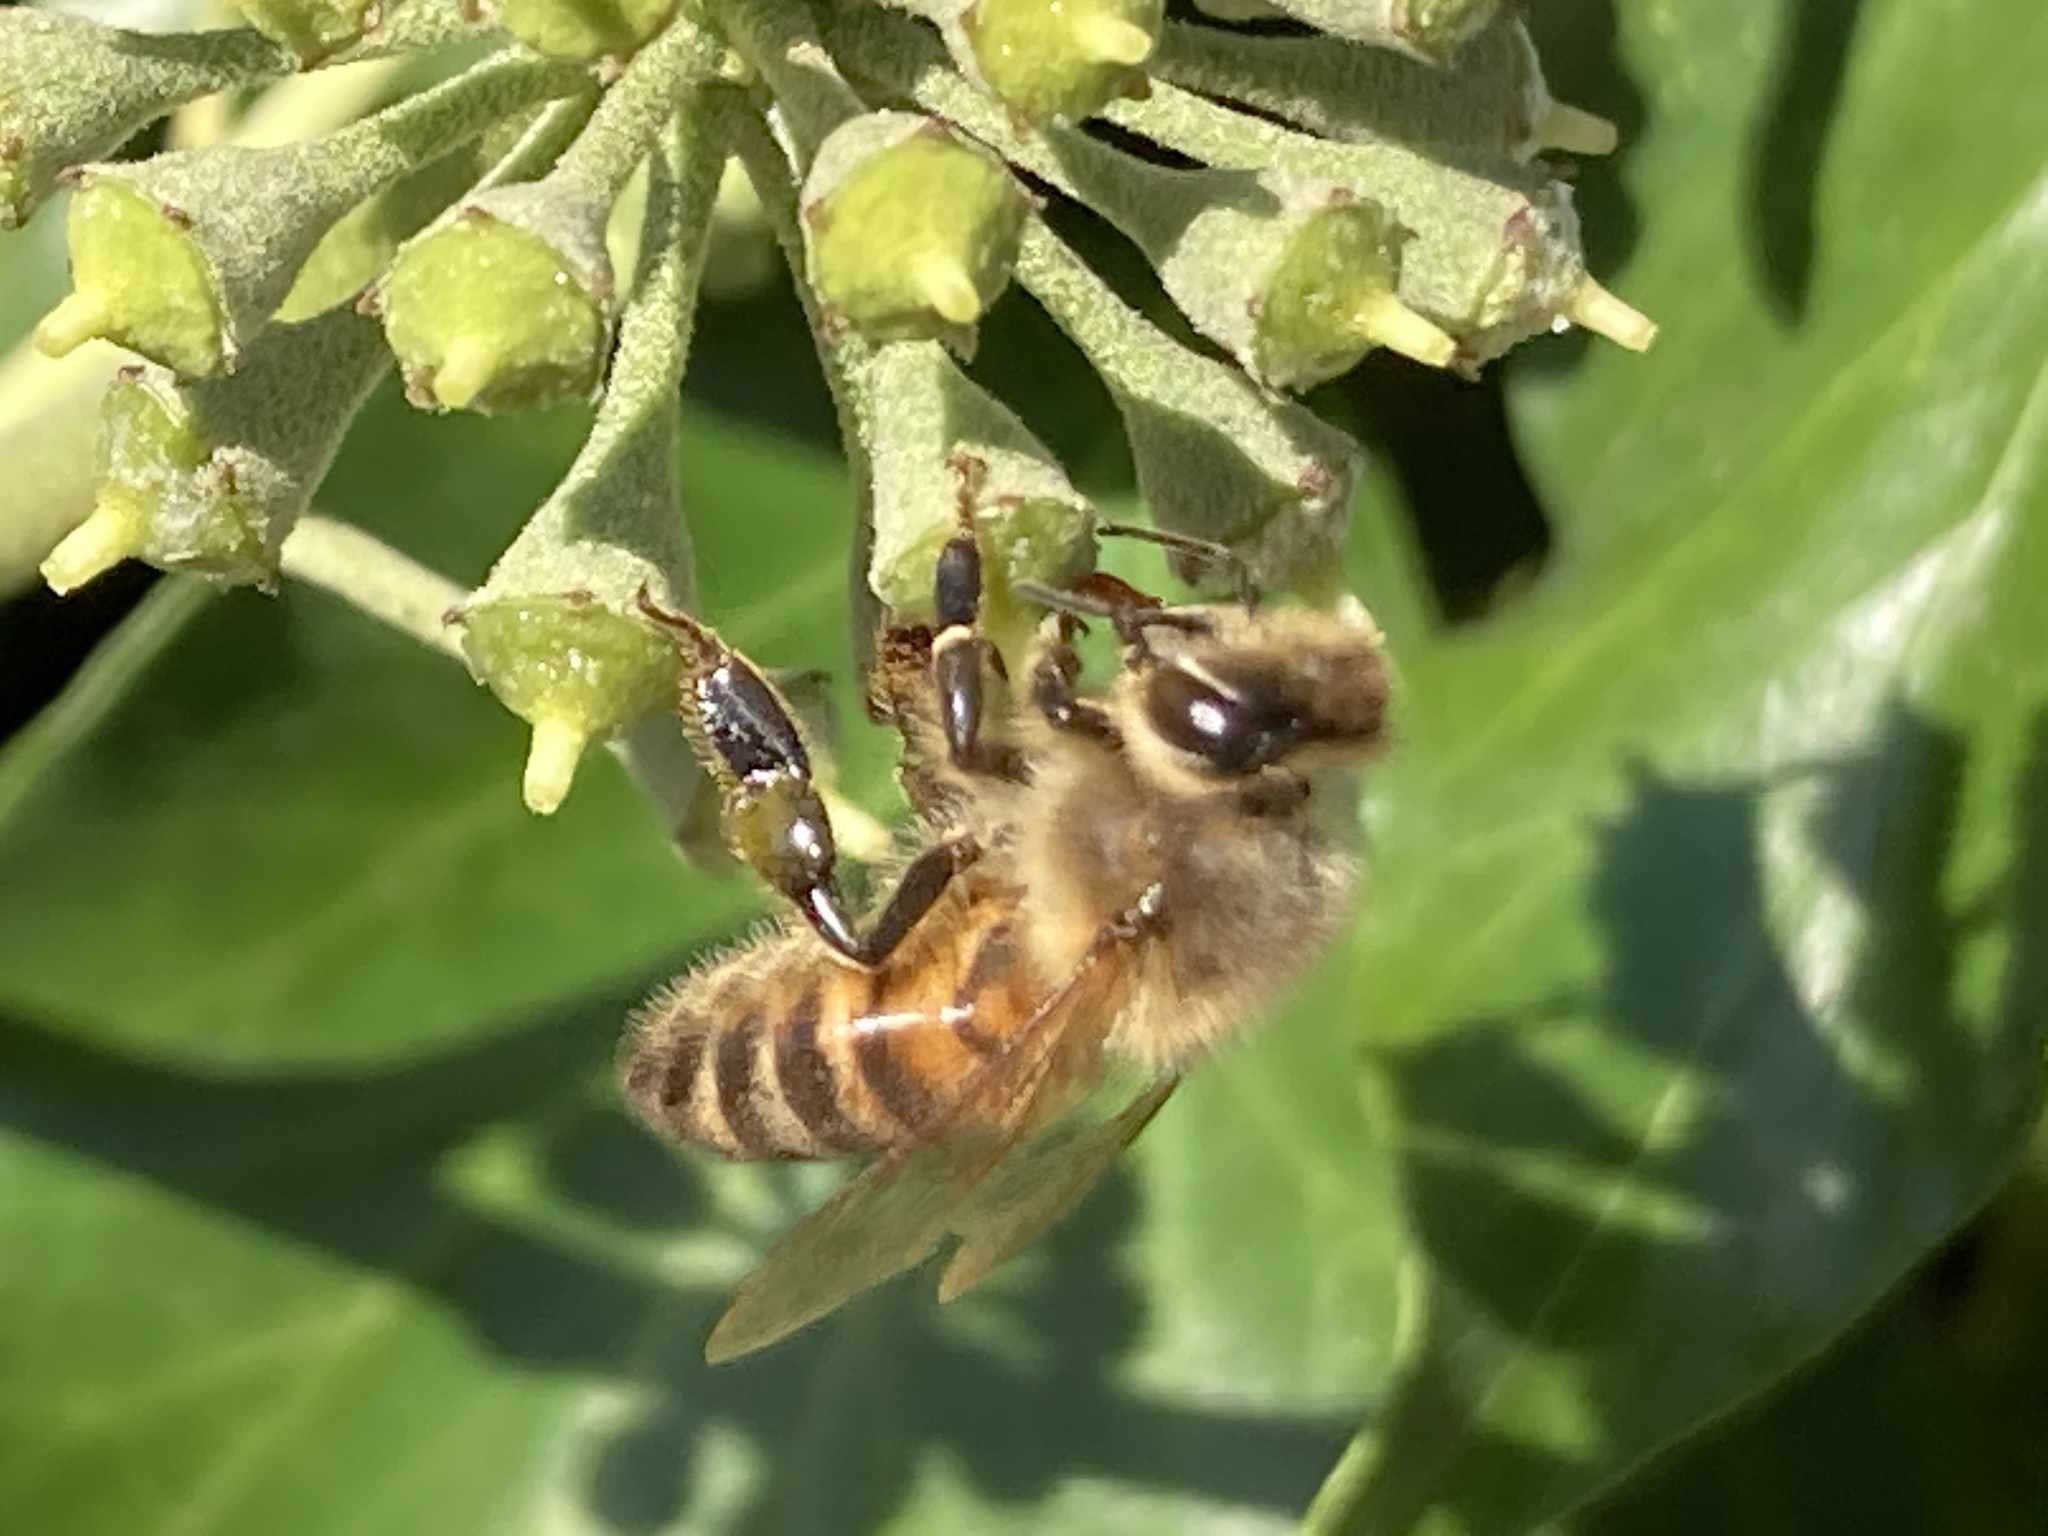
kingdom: Animalia
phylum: Arthropoda
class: Insecta
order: Hymenoptera
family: Apidae
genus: Apis
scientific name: Apis mellifera
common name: Honey bee
